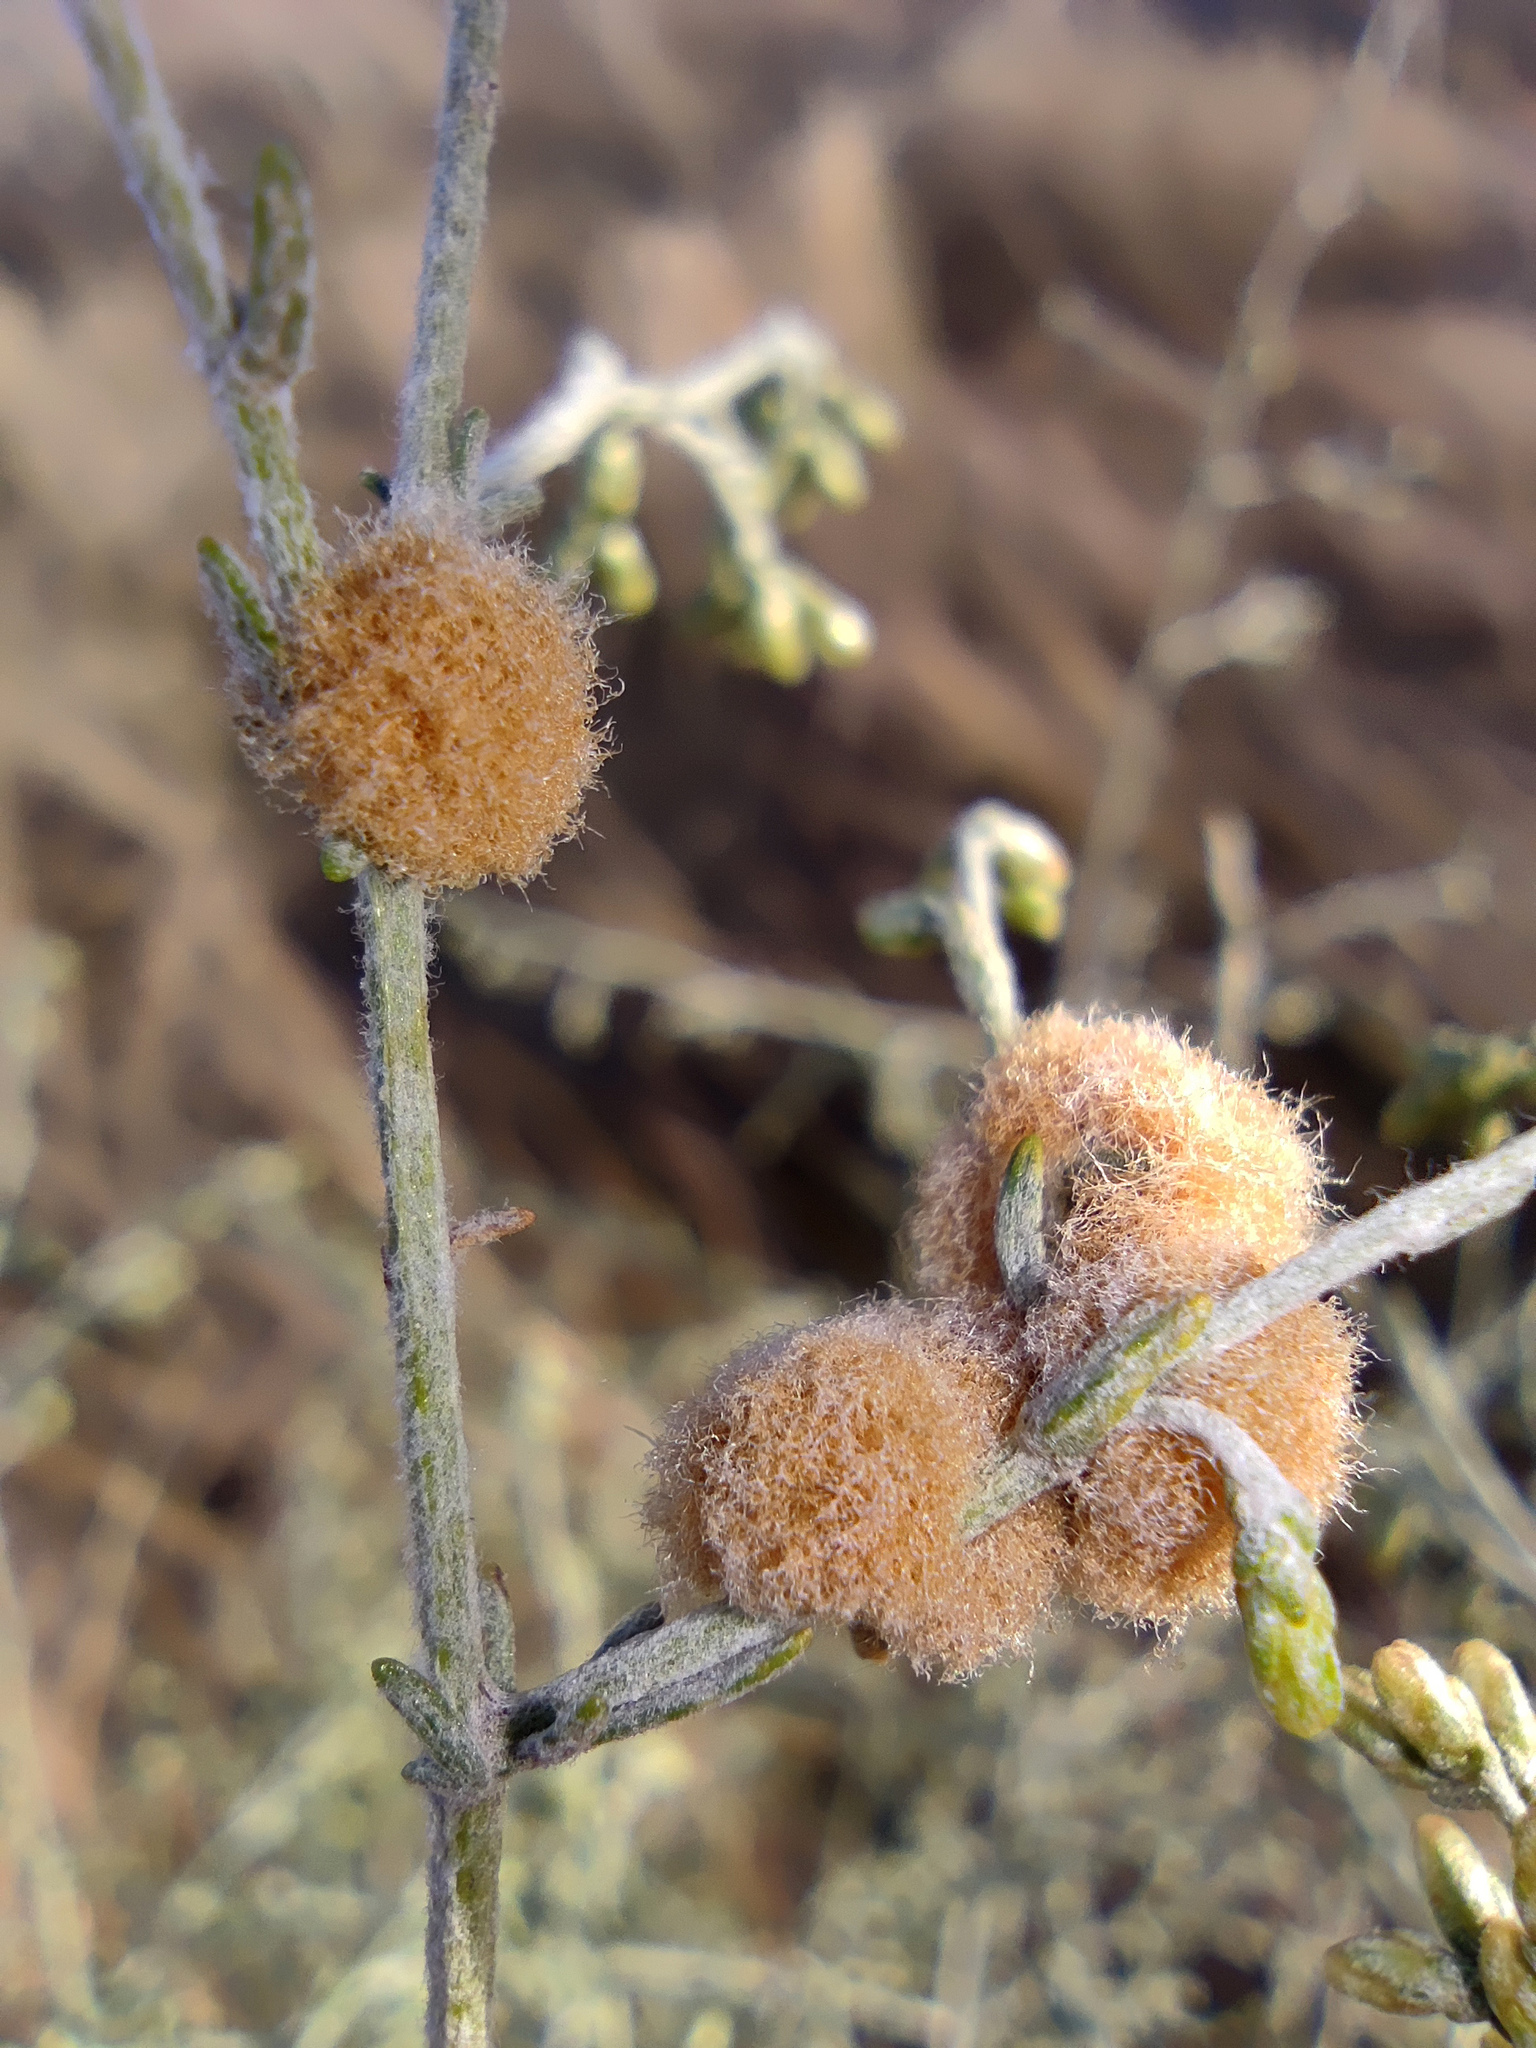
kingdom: Plantae
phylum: Tracheophyta
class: Magnoliopsida
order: Asterales
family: Asteraceae
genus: Artemisia
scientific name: Artemisia santonicum
